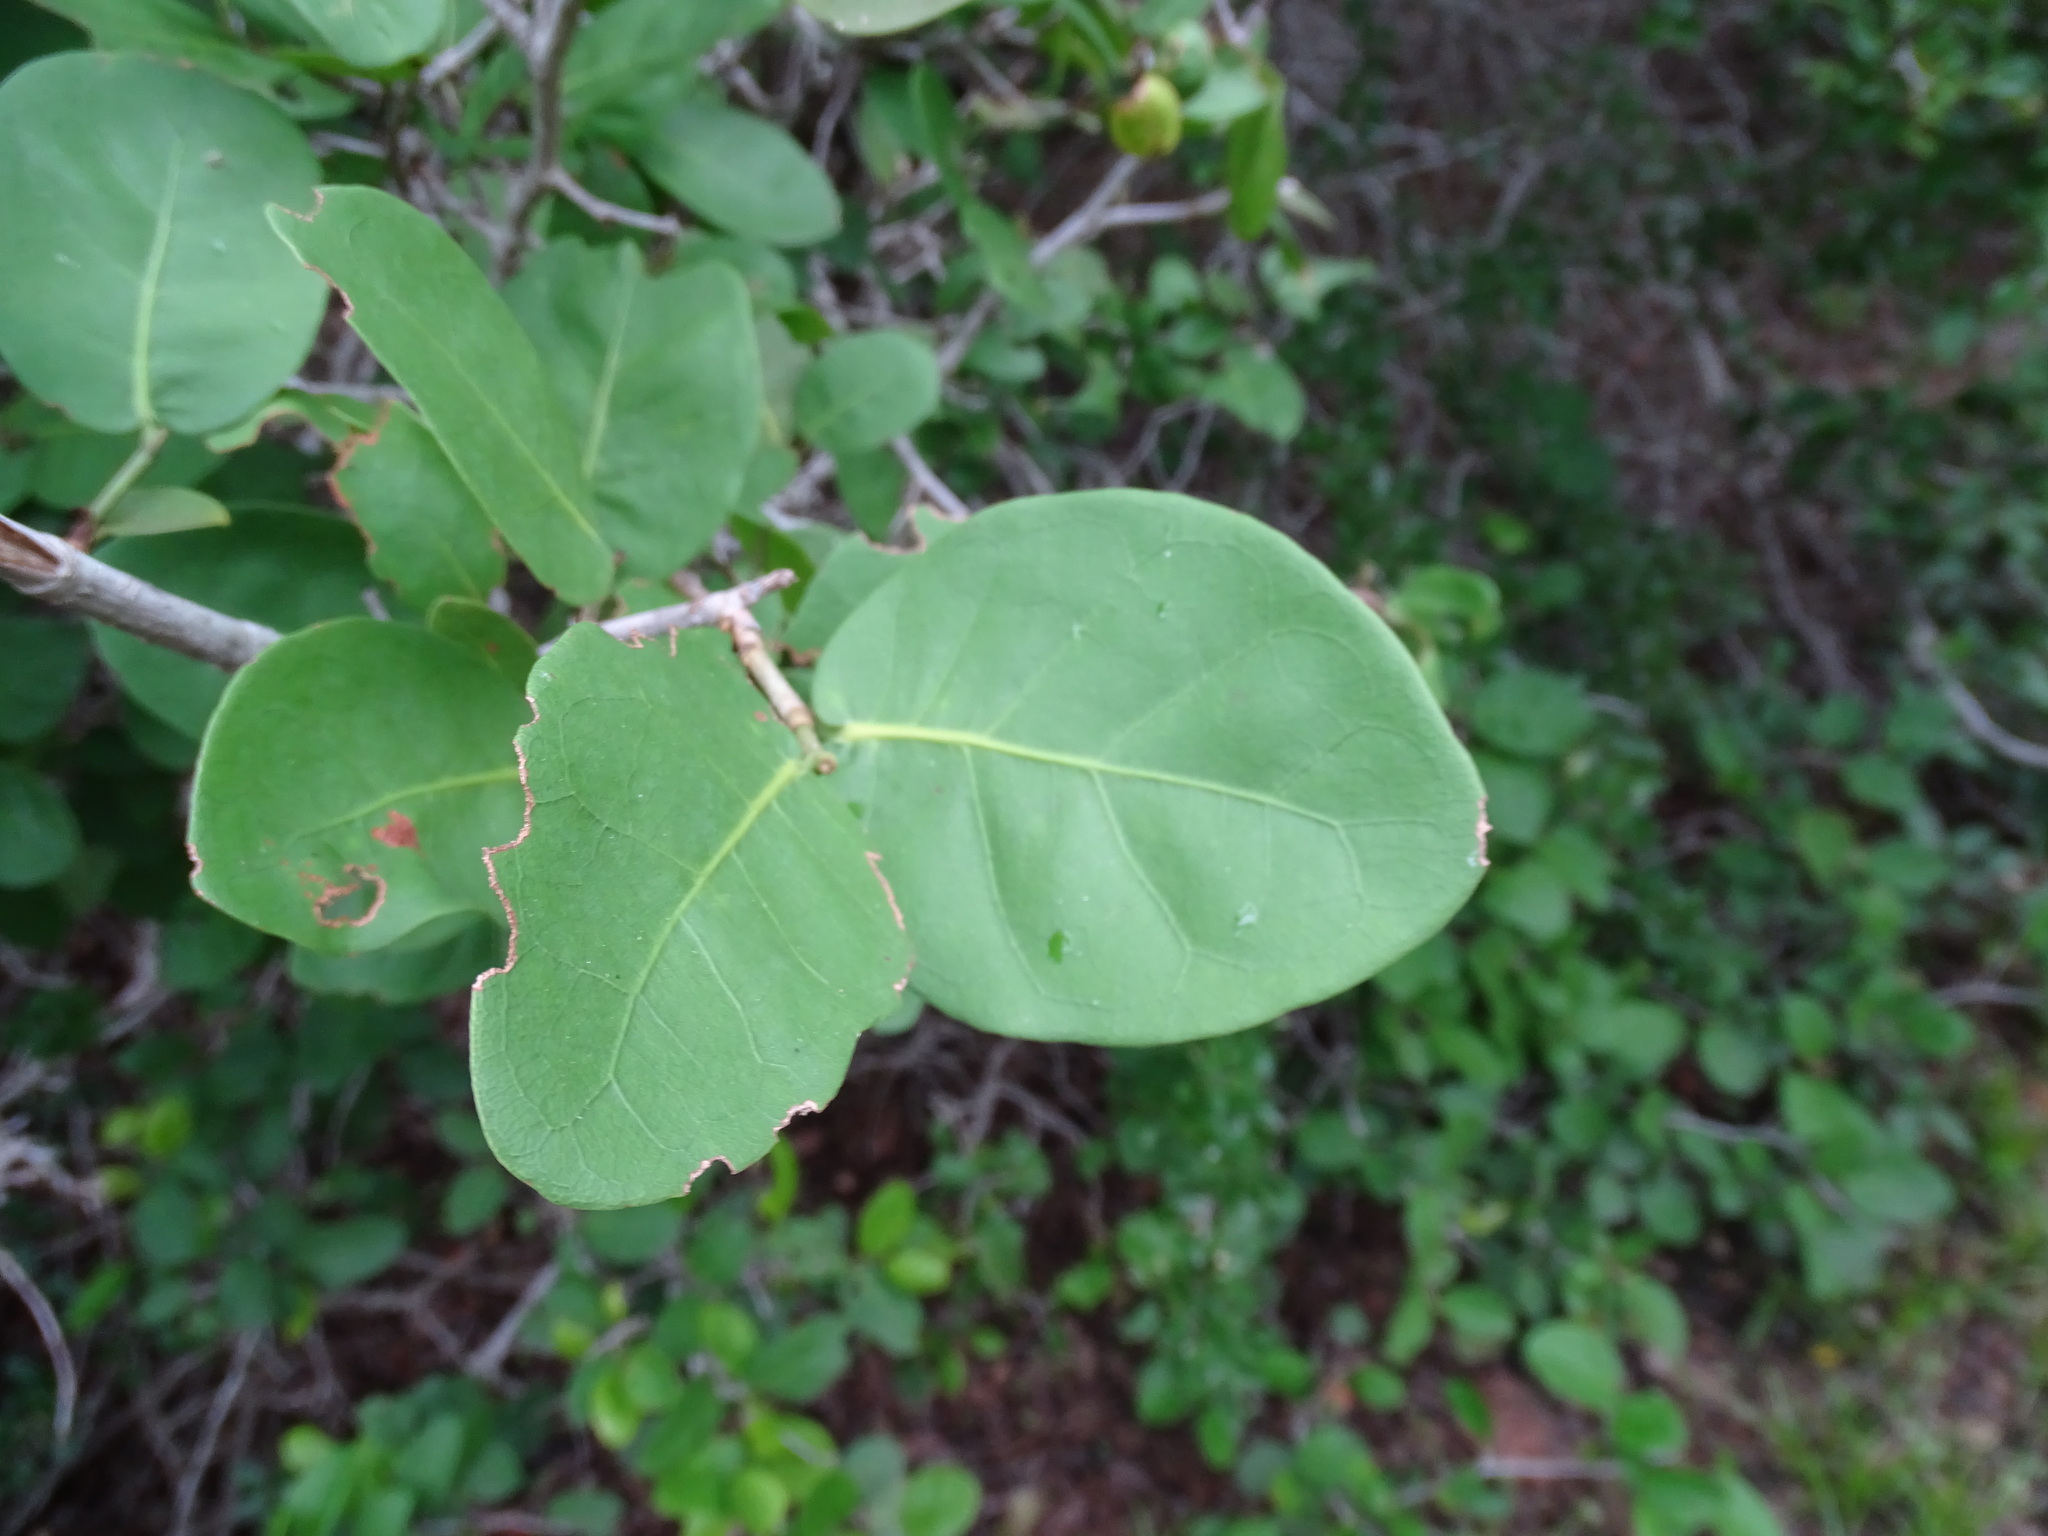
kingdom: Plantae
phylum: Tracheophyta
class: Magnoliopsida
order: Caryophyllales
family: Polygonaceae
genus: Coccoloba
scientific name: Coccoloba humboldtii
